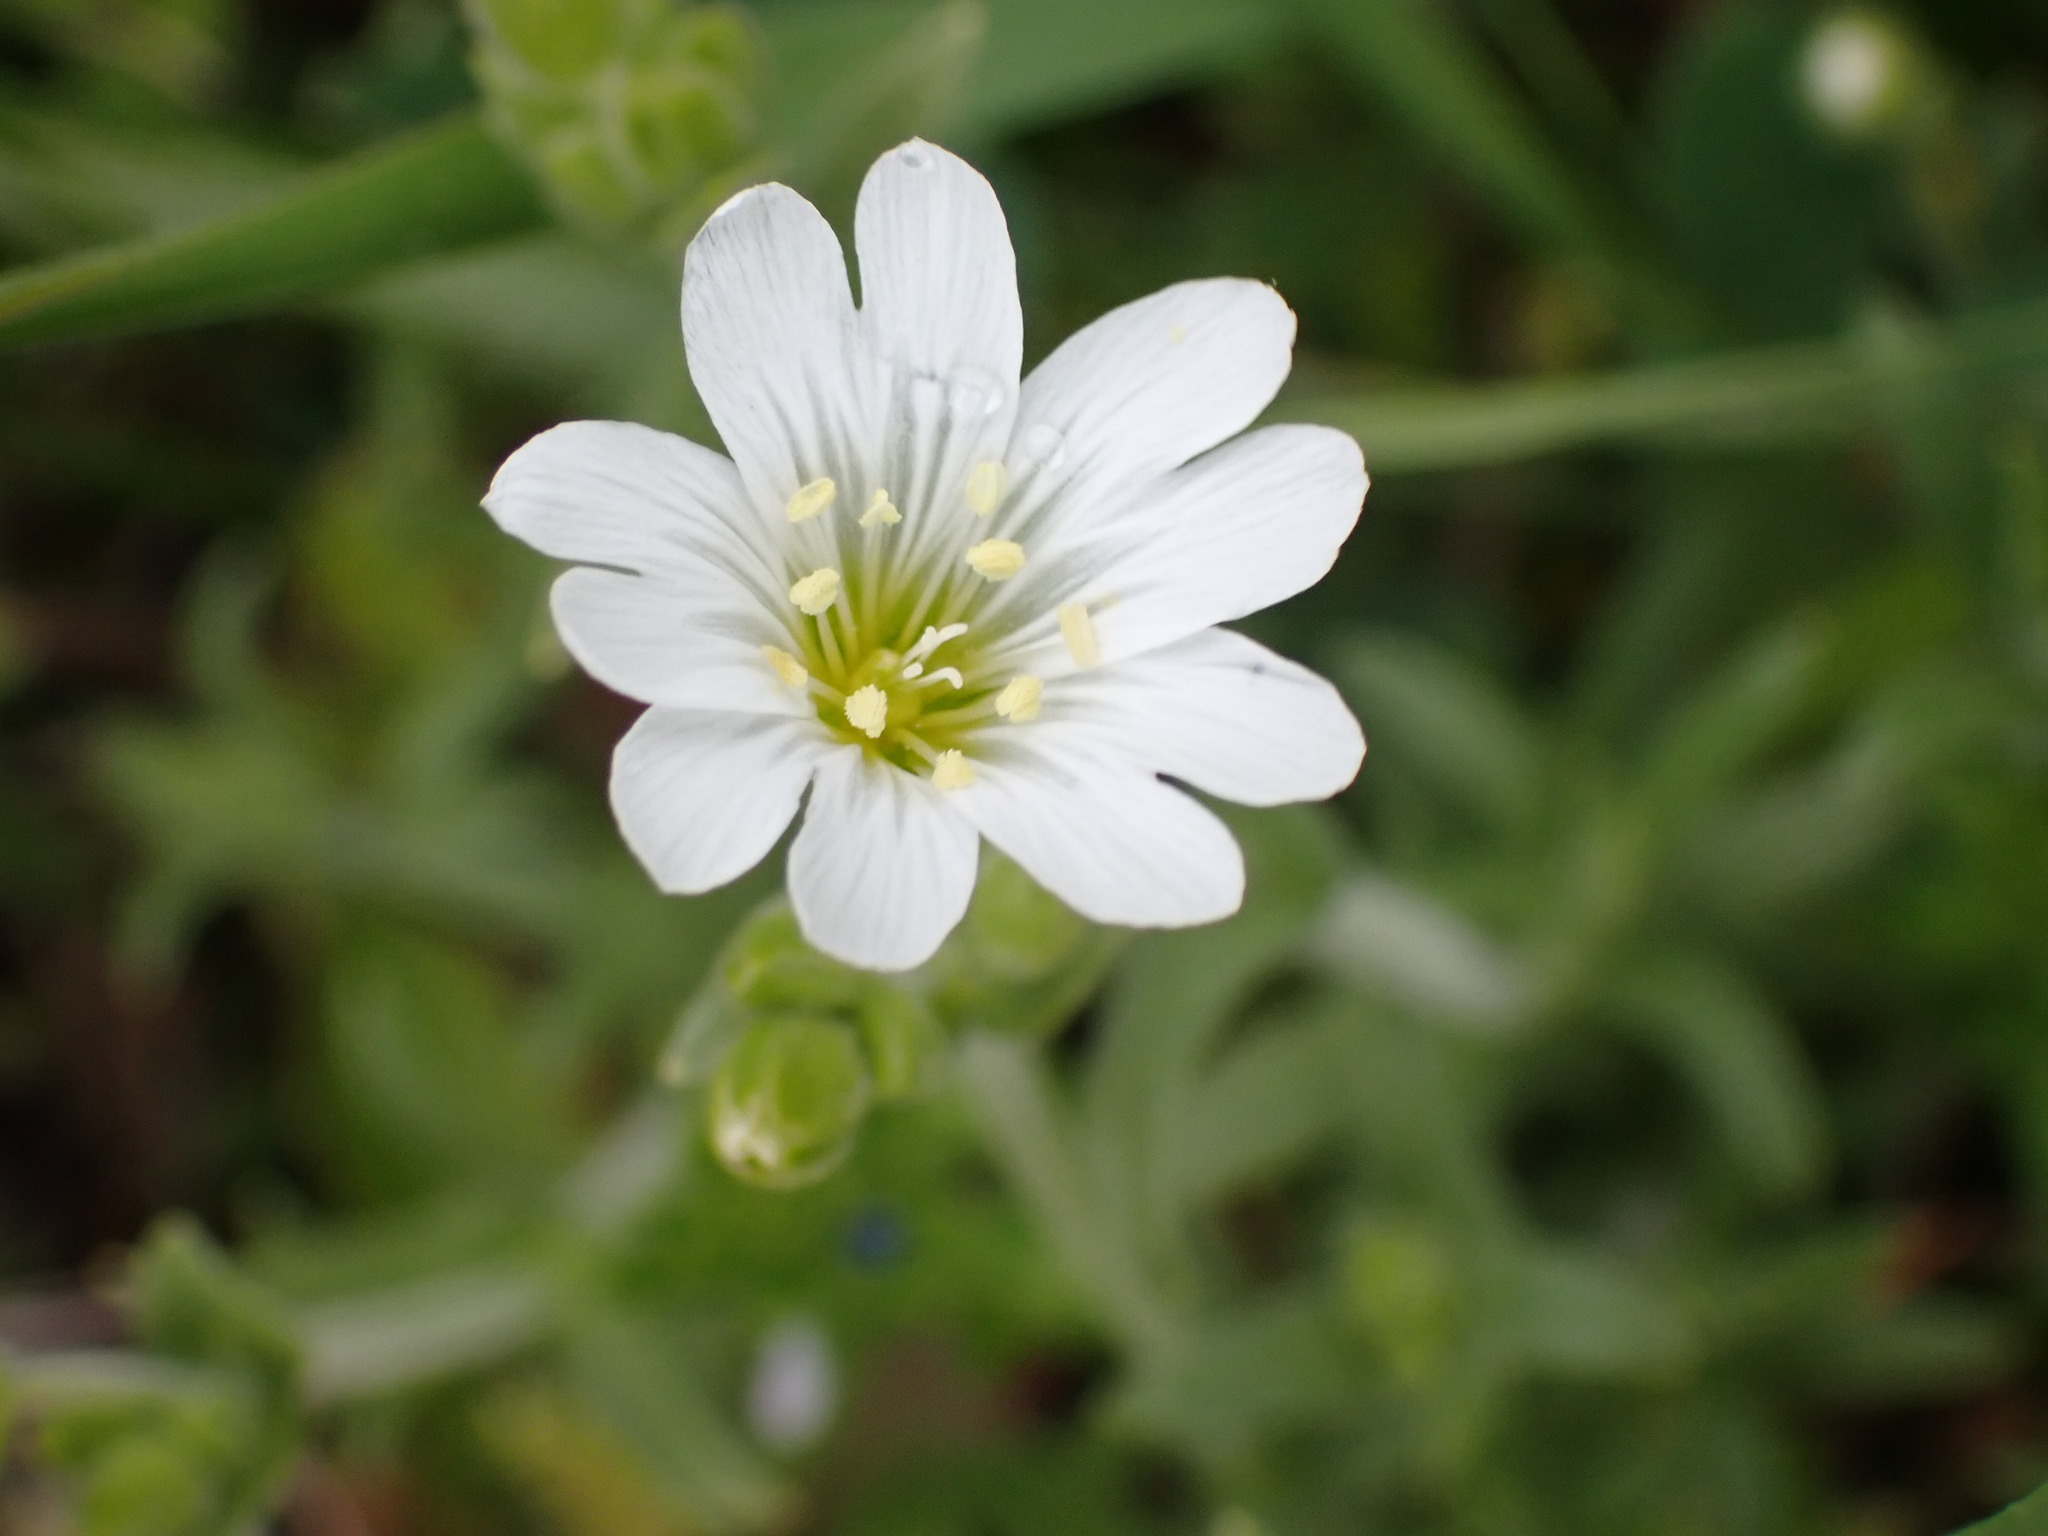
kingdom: Plantae
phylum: Tracheophyta
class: Magnoliopsida
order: Caryophyllales
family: Caryophyllaceae
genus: Cerastium
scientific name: Cerastium arvense
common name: Field mouse-ear
